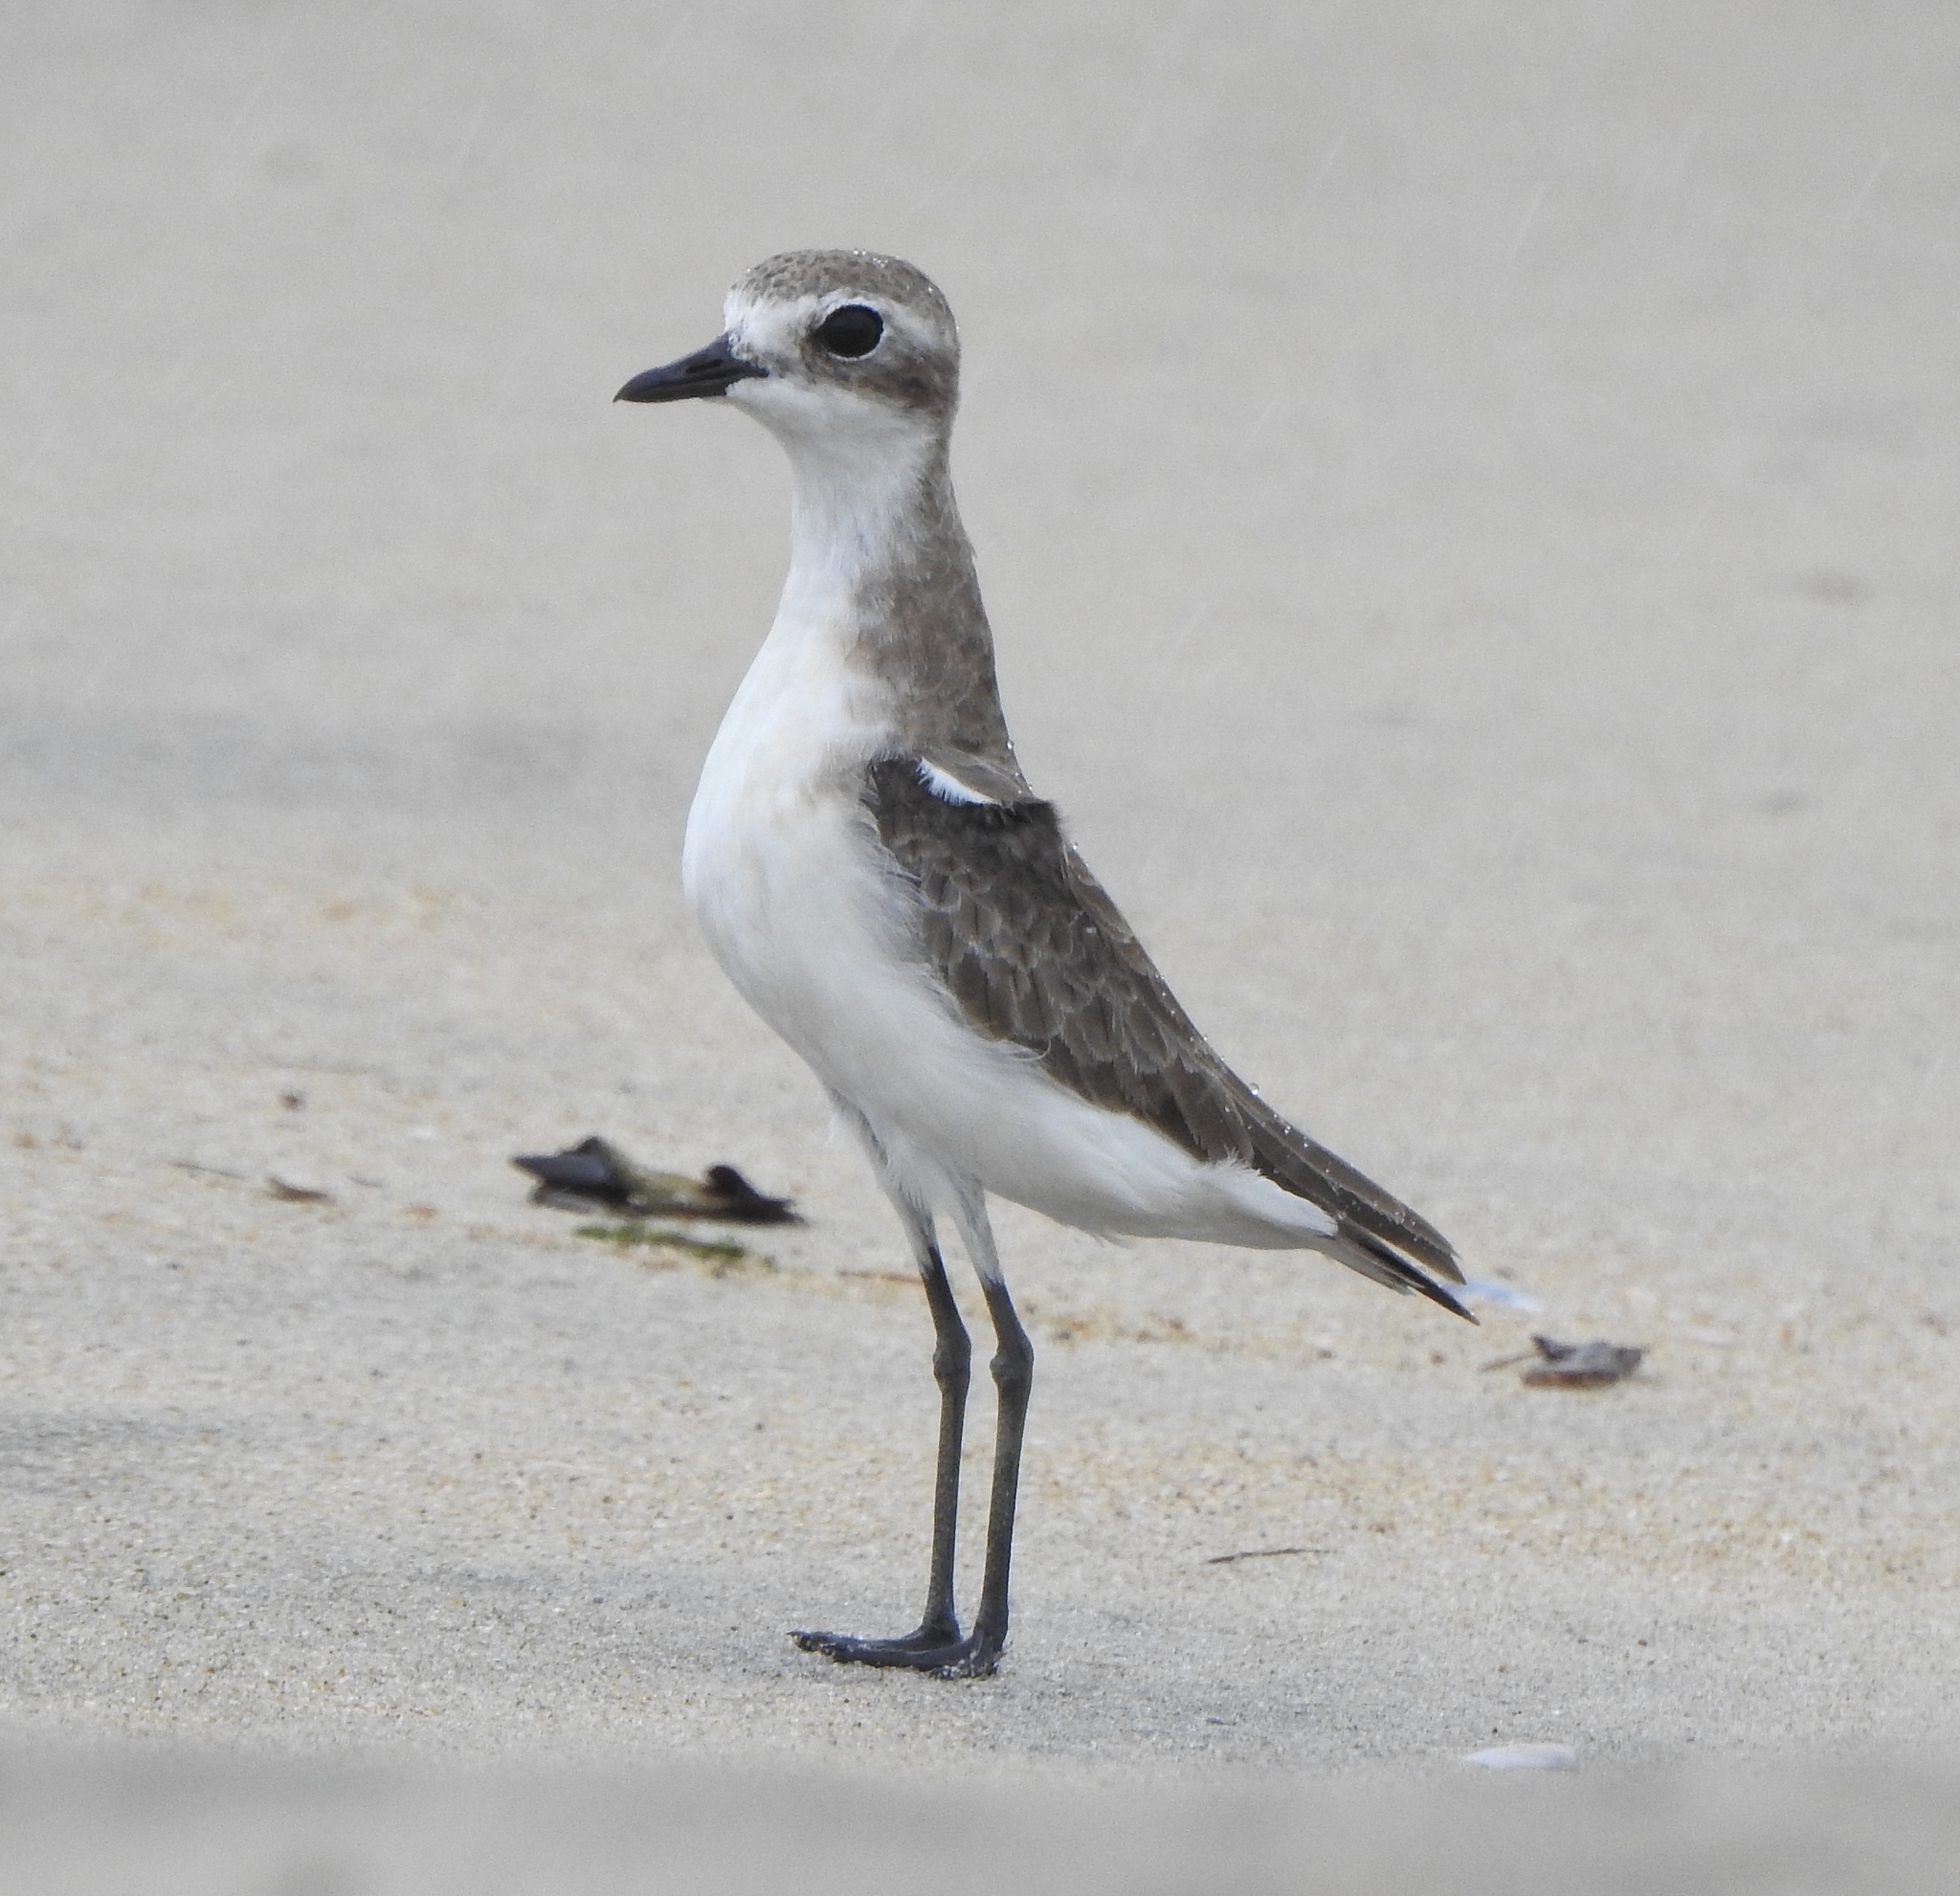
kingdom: Animalia
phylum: Chordata
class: Aves
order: Charadriiformes
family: Charadriidae
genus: Anarhynchus
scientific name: Anarhynchus
